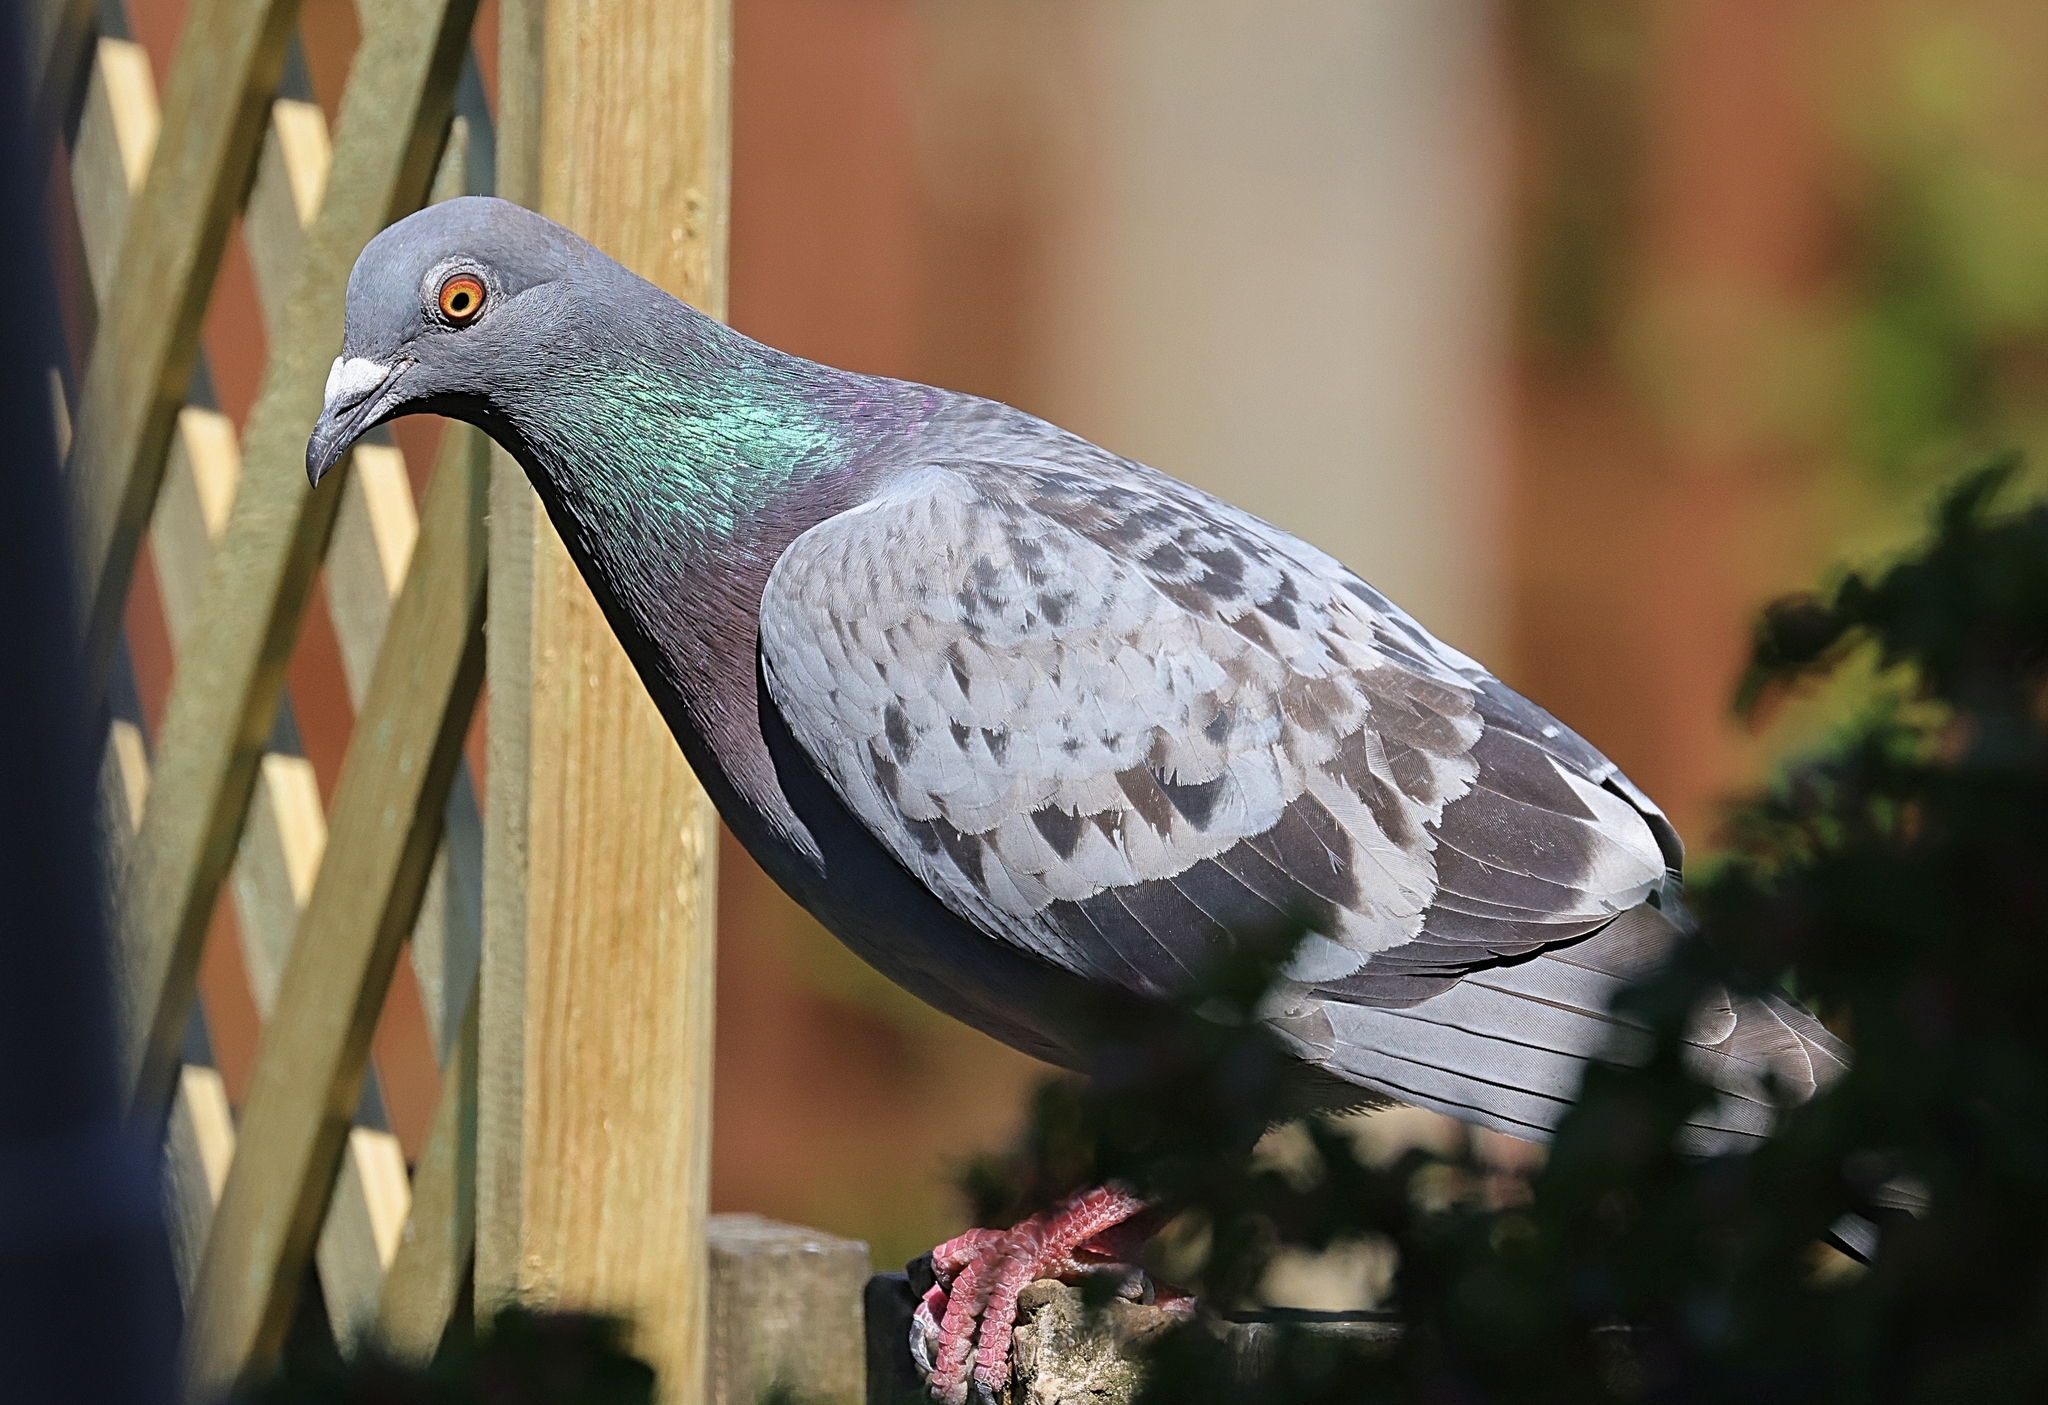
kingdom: Animalia
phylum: Chordata
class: Aves
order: Columbiformes
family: Columbidae
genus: Columba
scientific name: Columba livia
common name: Rock pigeon
